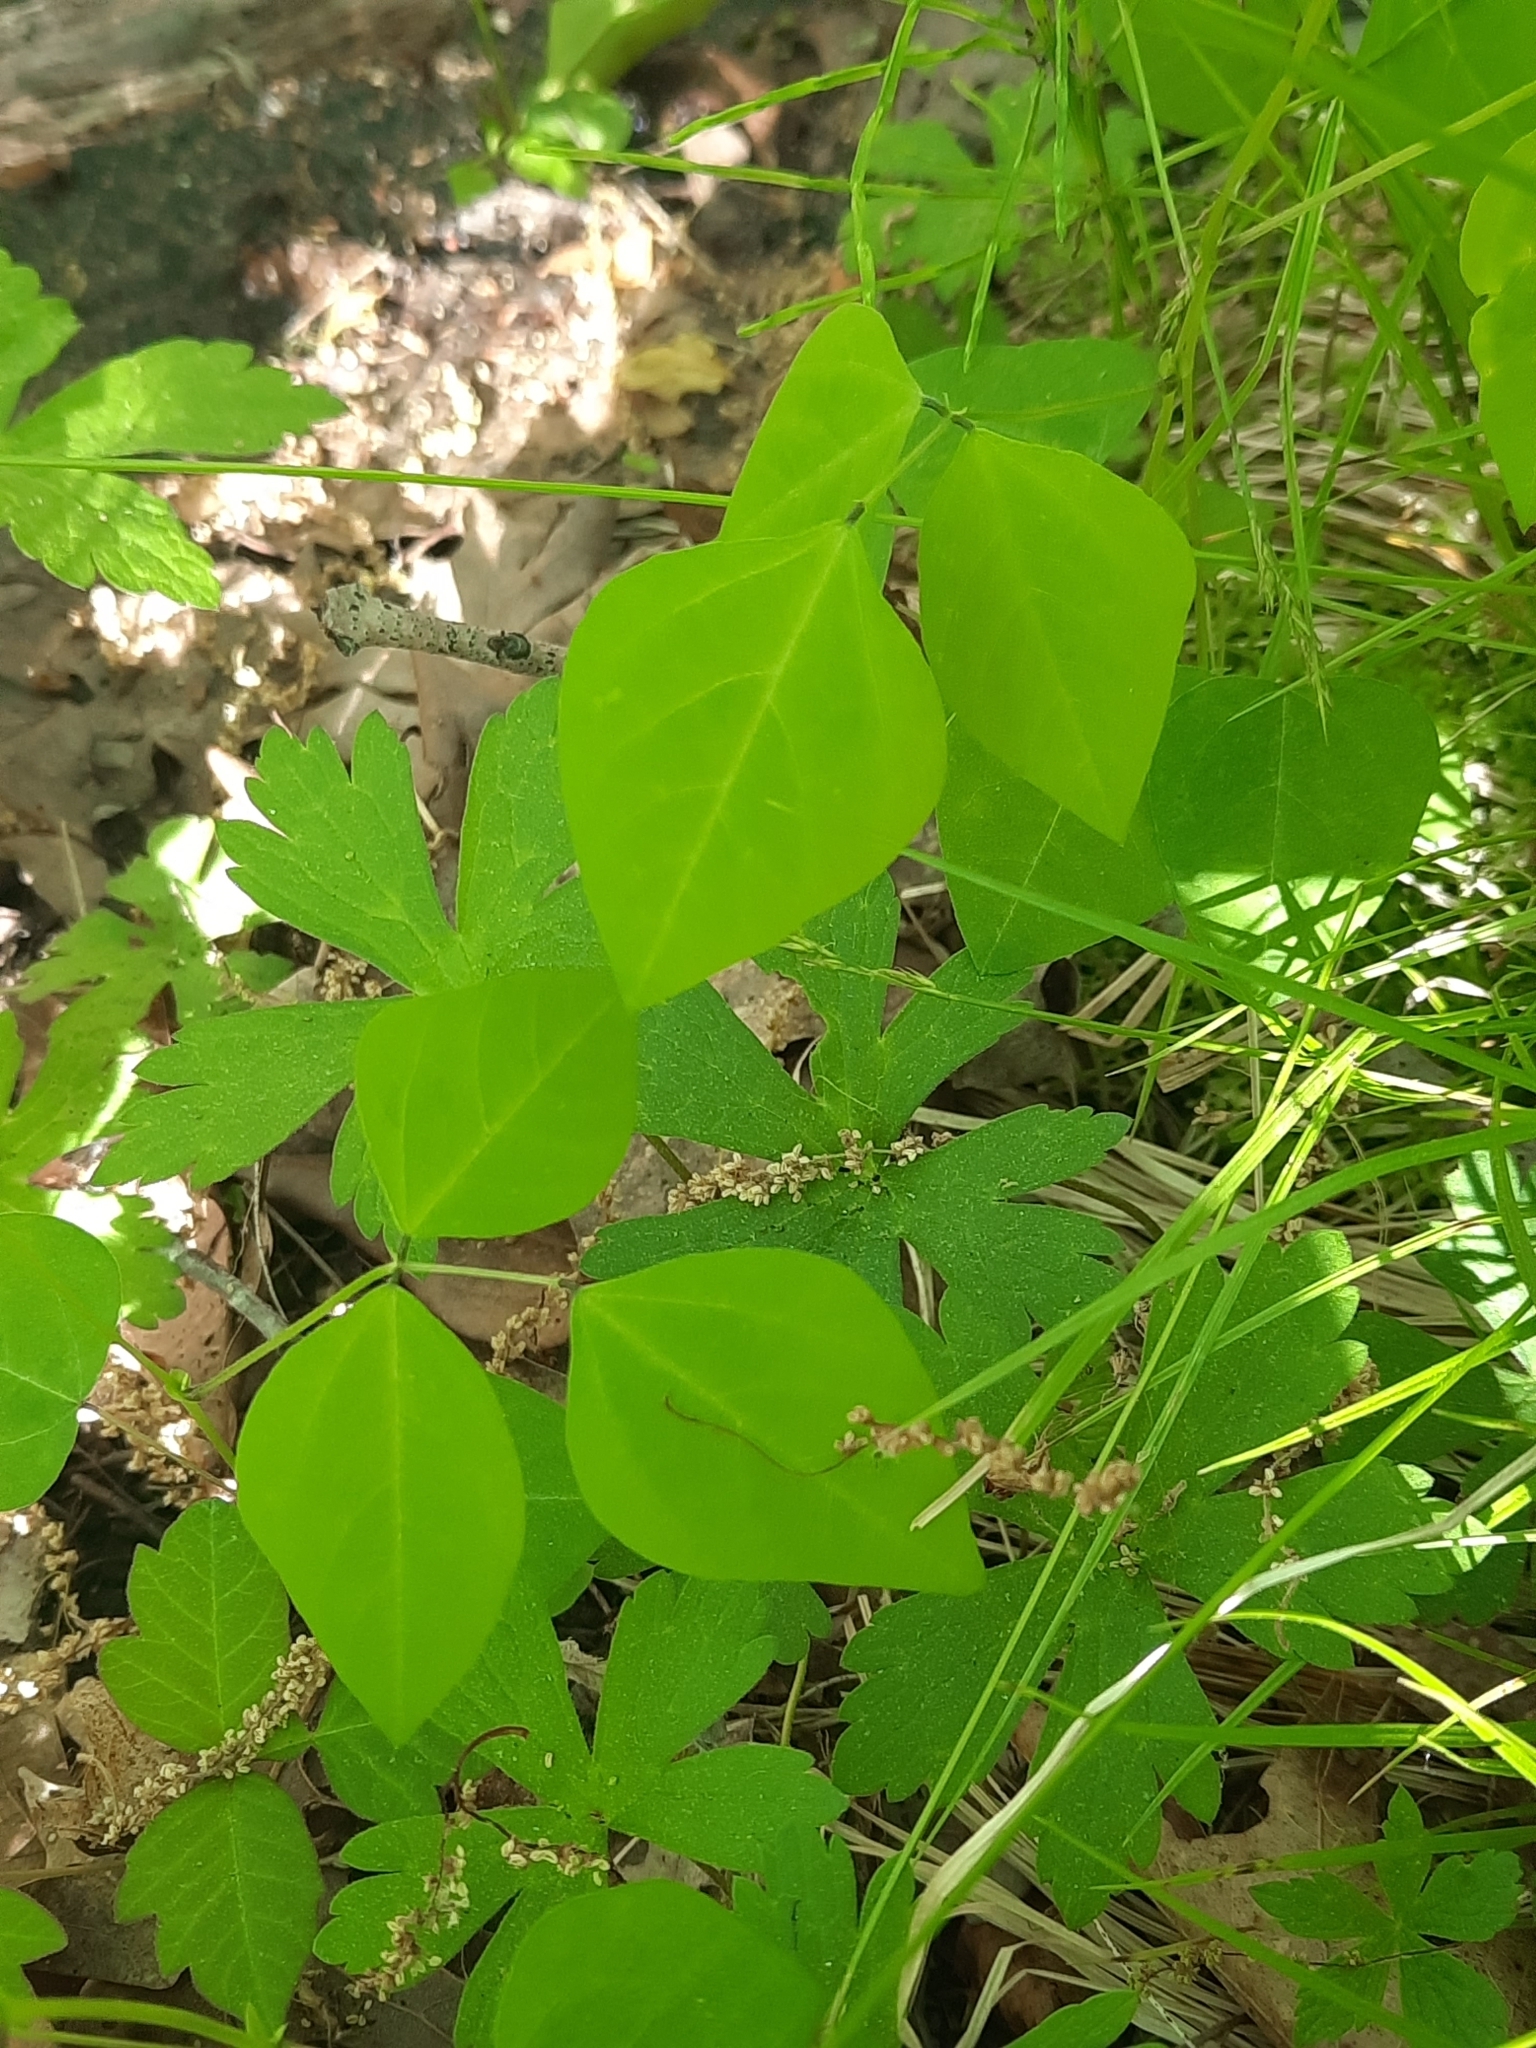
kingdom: Plantae
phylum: Tracheophyta
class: Magnoliopsida
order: Fabales
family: Fabaceae
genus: Amphicarpaea
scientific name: Amphicarpaea bracteata
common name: American hog peanut
